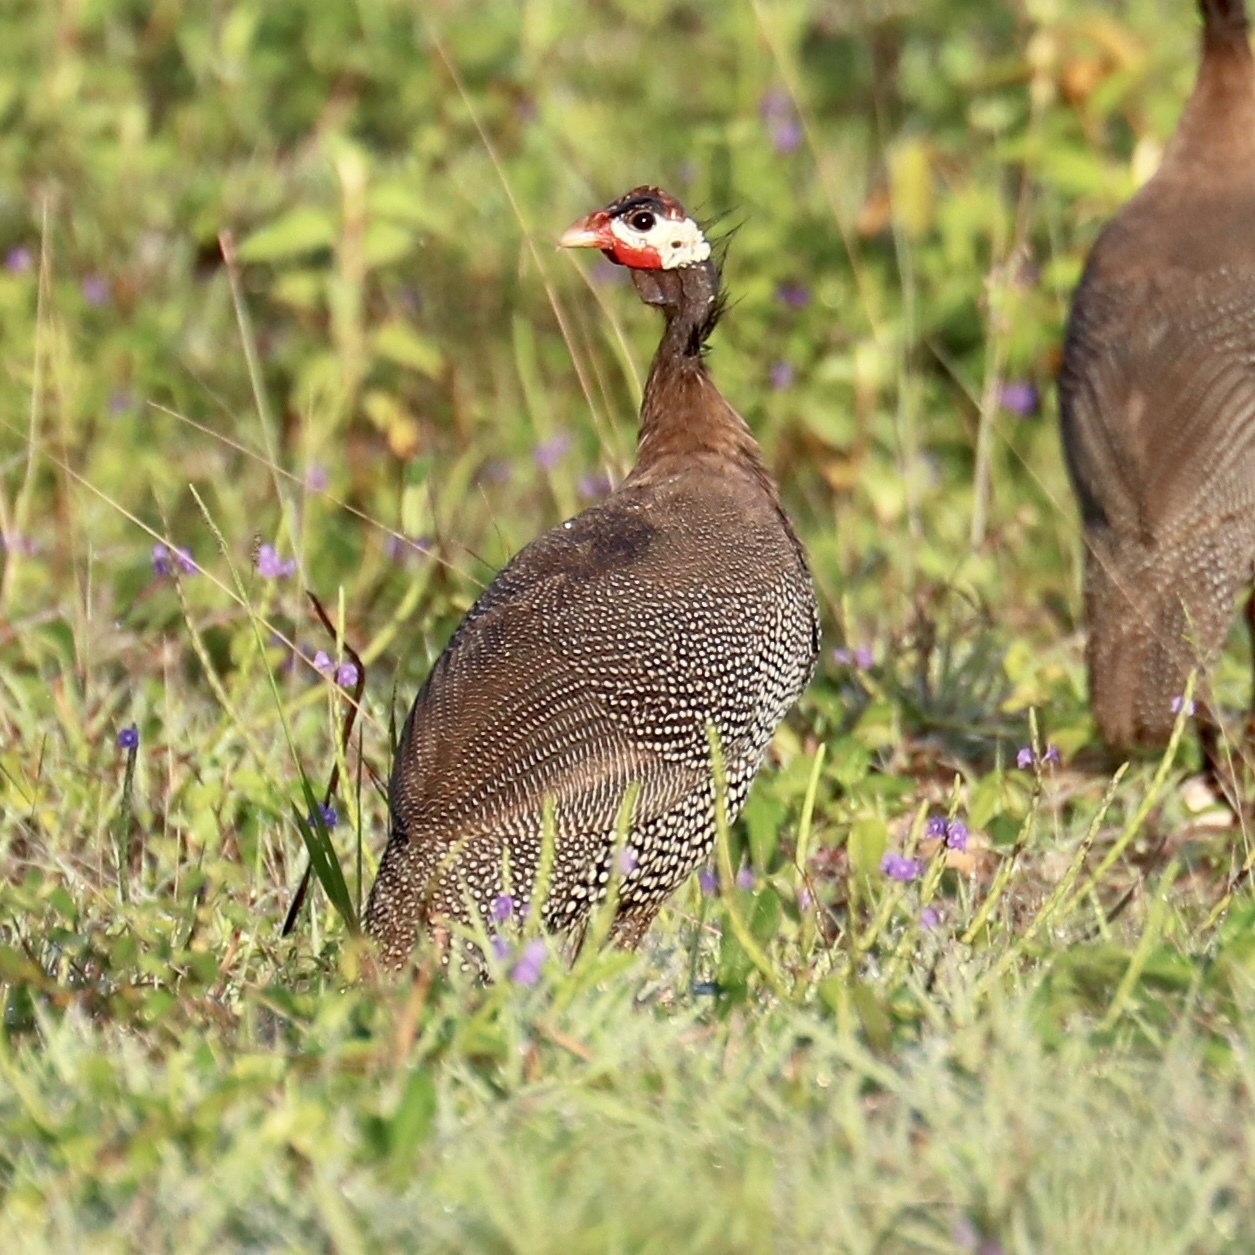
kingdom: Animalia
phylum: Chordata
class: Aves
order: Galliformes
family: Numididae
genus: Numida
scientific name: Numida meleagris
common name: Helmeted guineafowl
